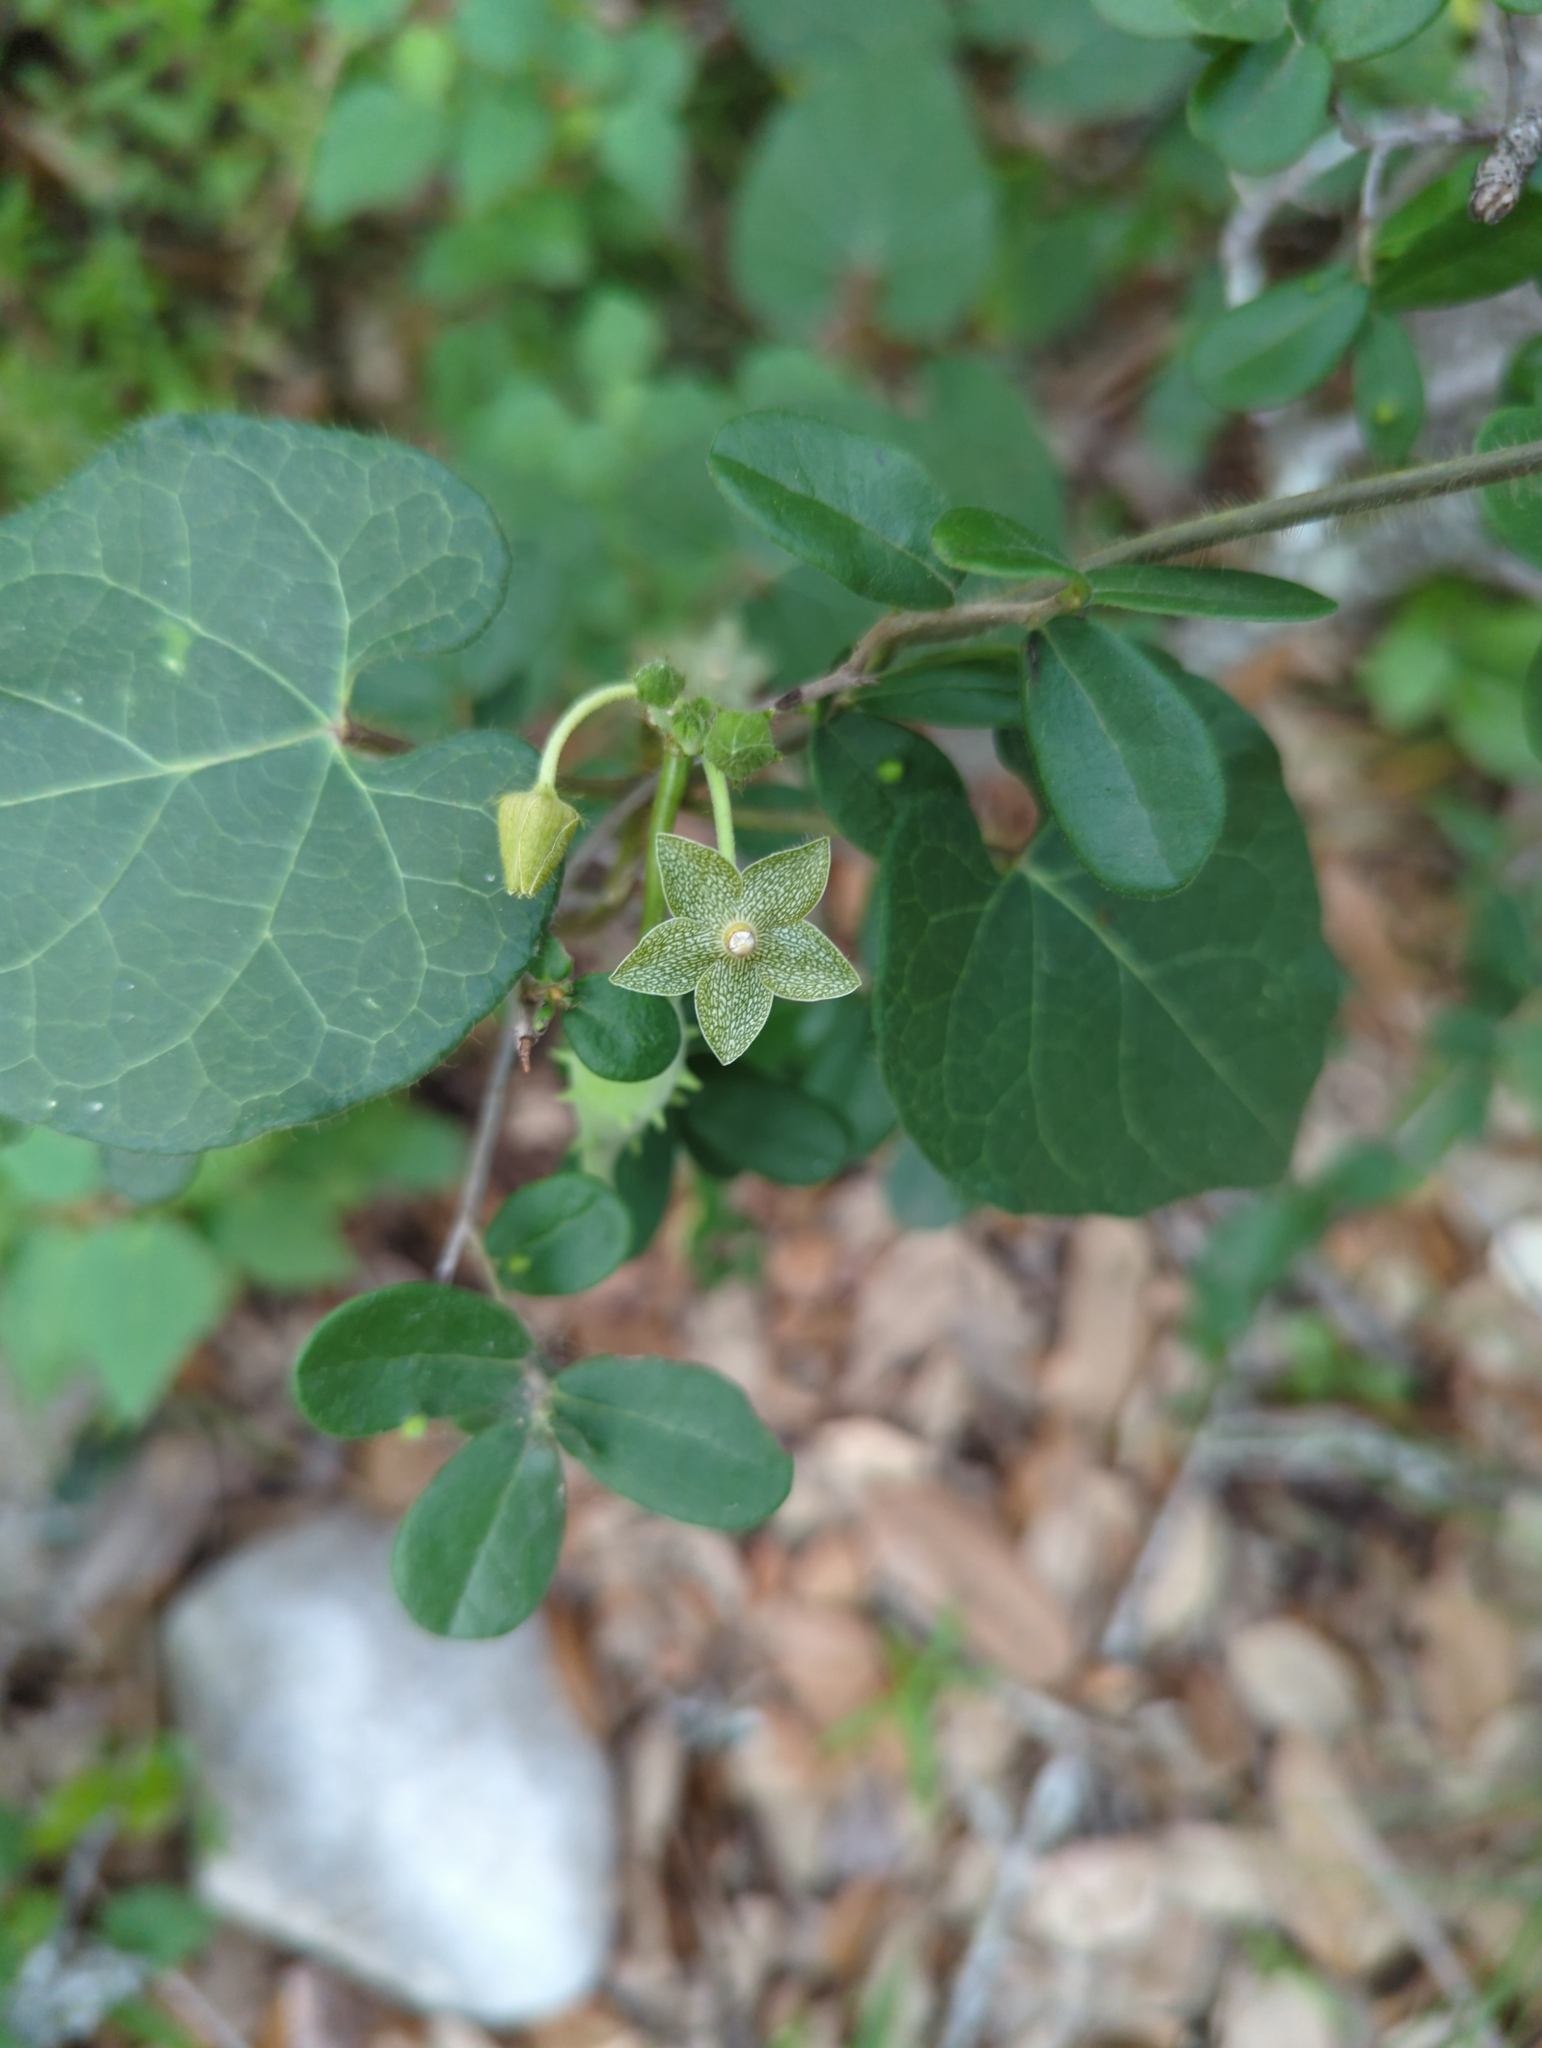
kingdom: Plantae
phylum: Tracheophyta
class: Magnoliopsida
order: Gentianales
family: Apocynaceae
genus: Dictyanthus
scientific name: Dictyanthus reticulatus
